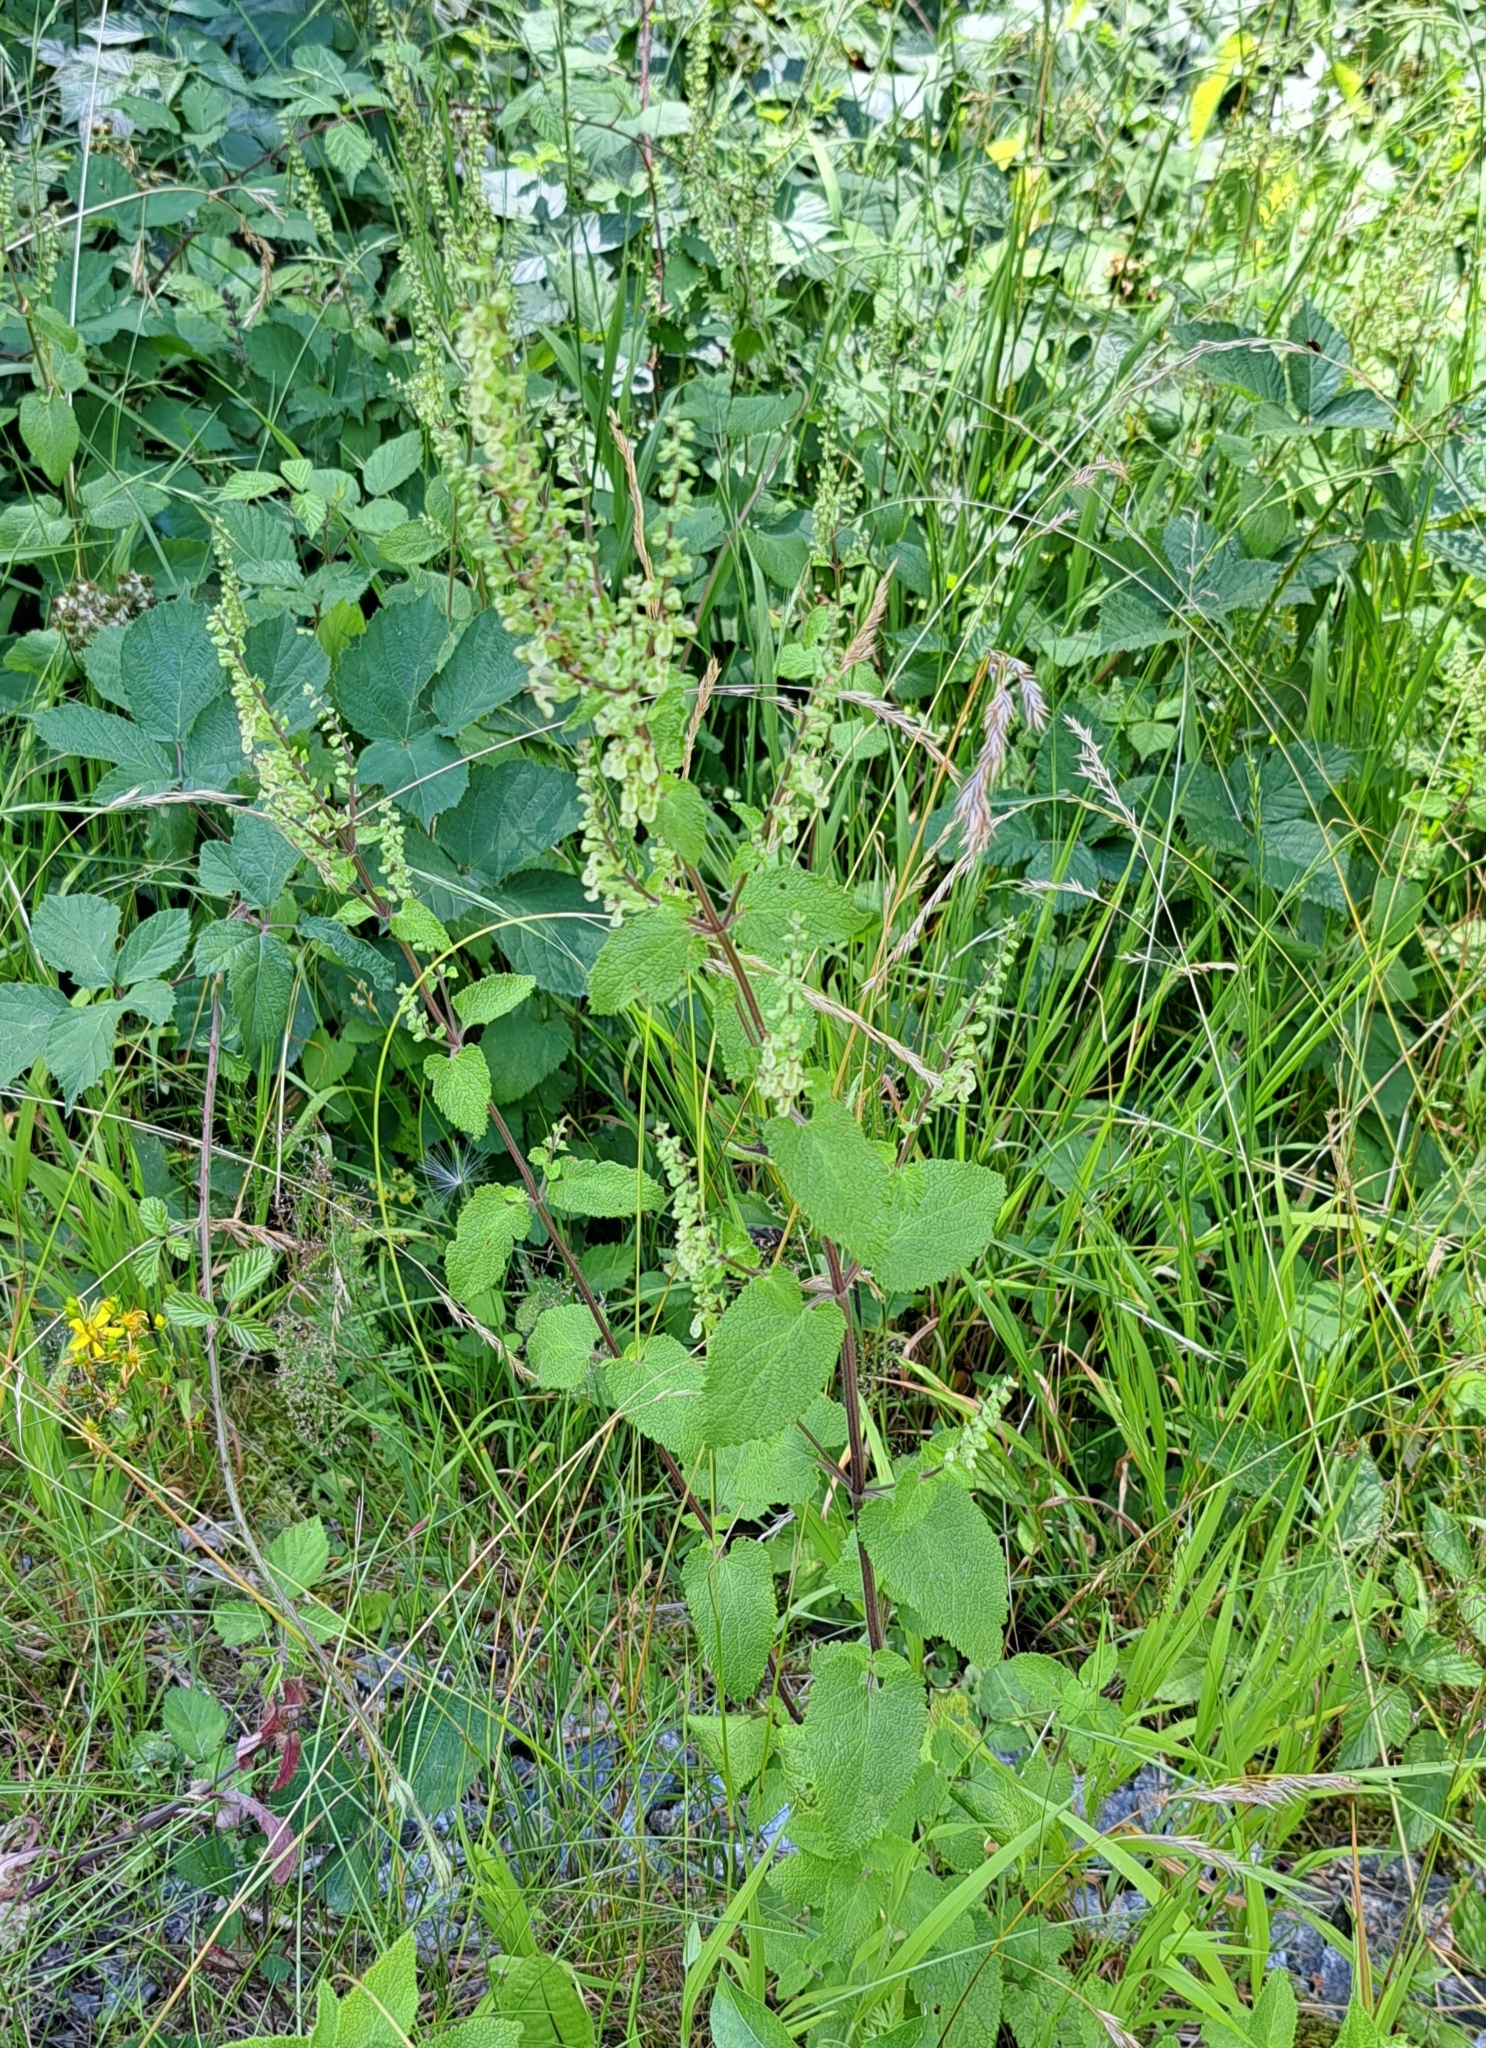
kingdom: Plantae
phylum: Tracheophyta
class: Magnoliopsida
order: Lamiales
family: Lamiaceae
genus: Teucrium
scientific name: Teucrium scorodonia
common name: Woodland germander
